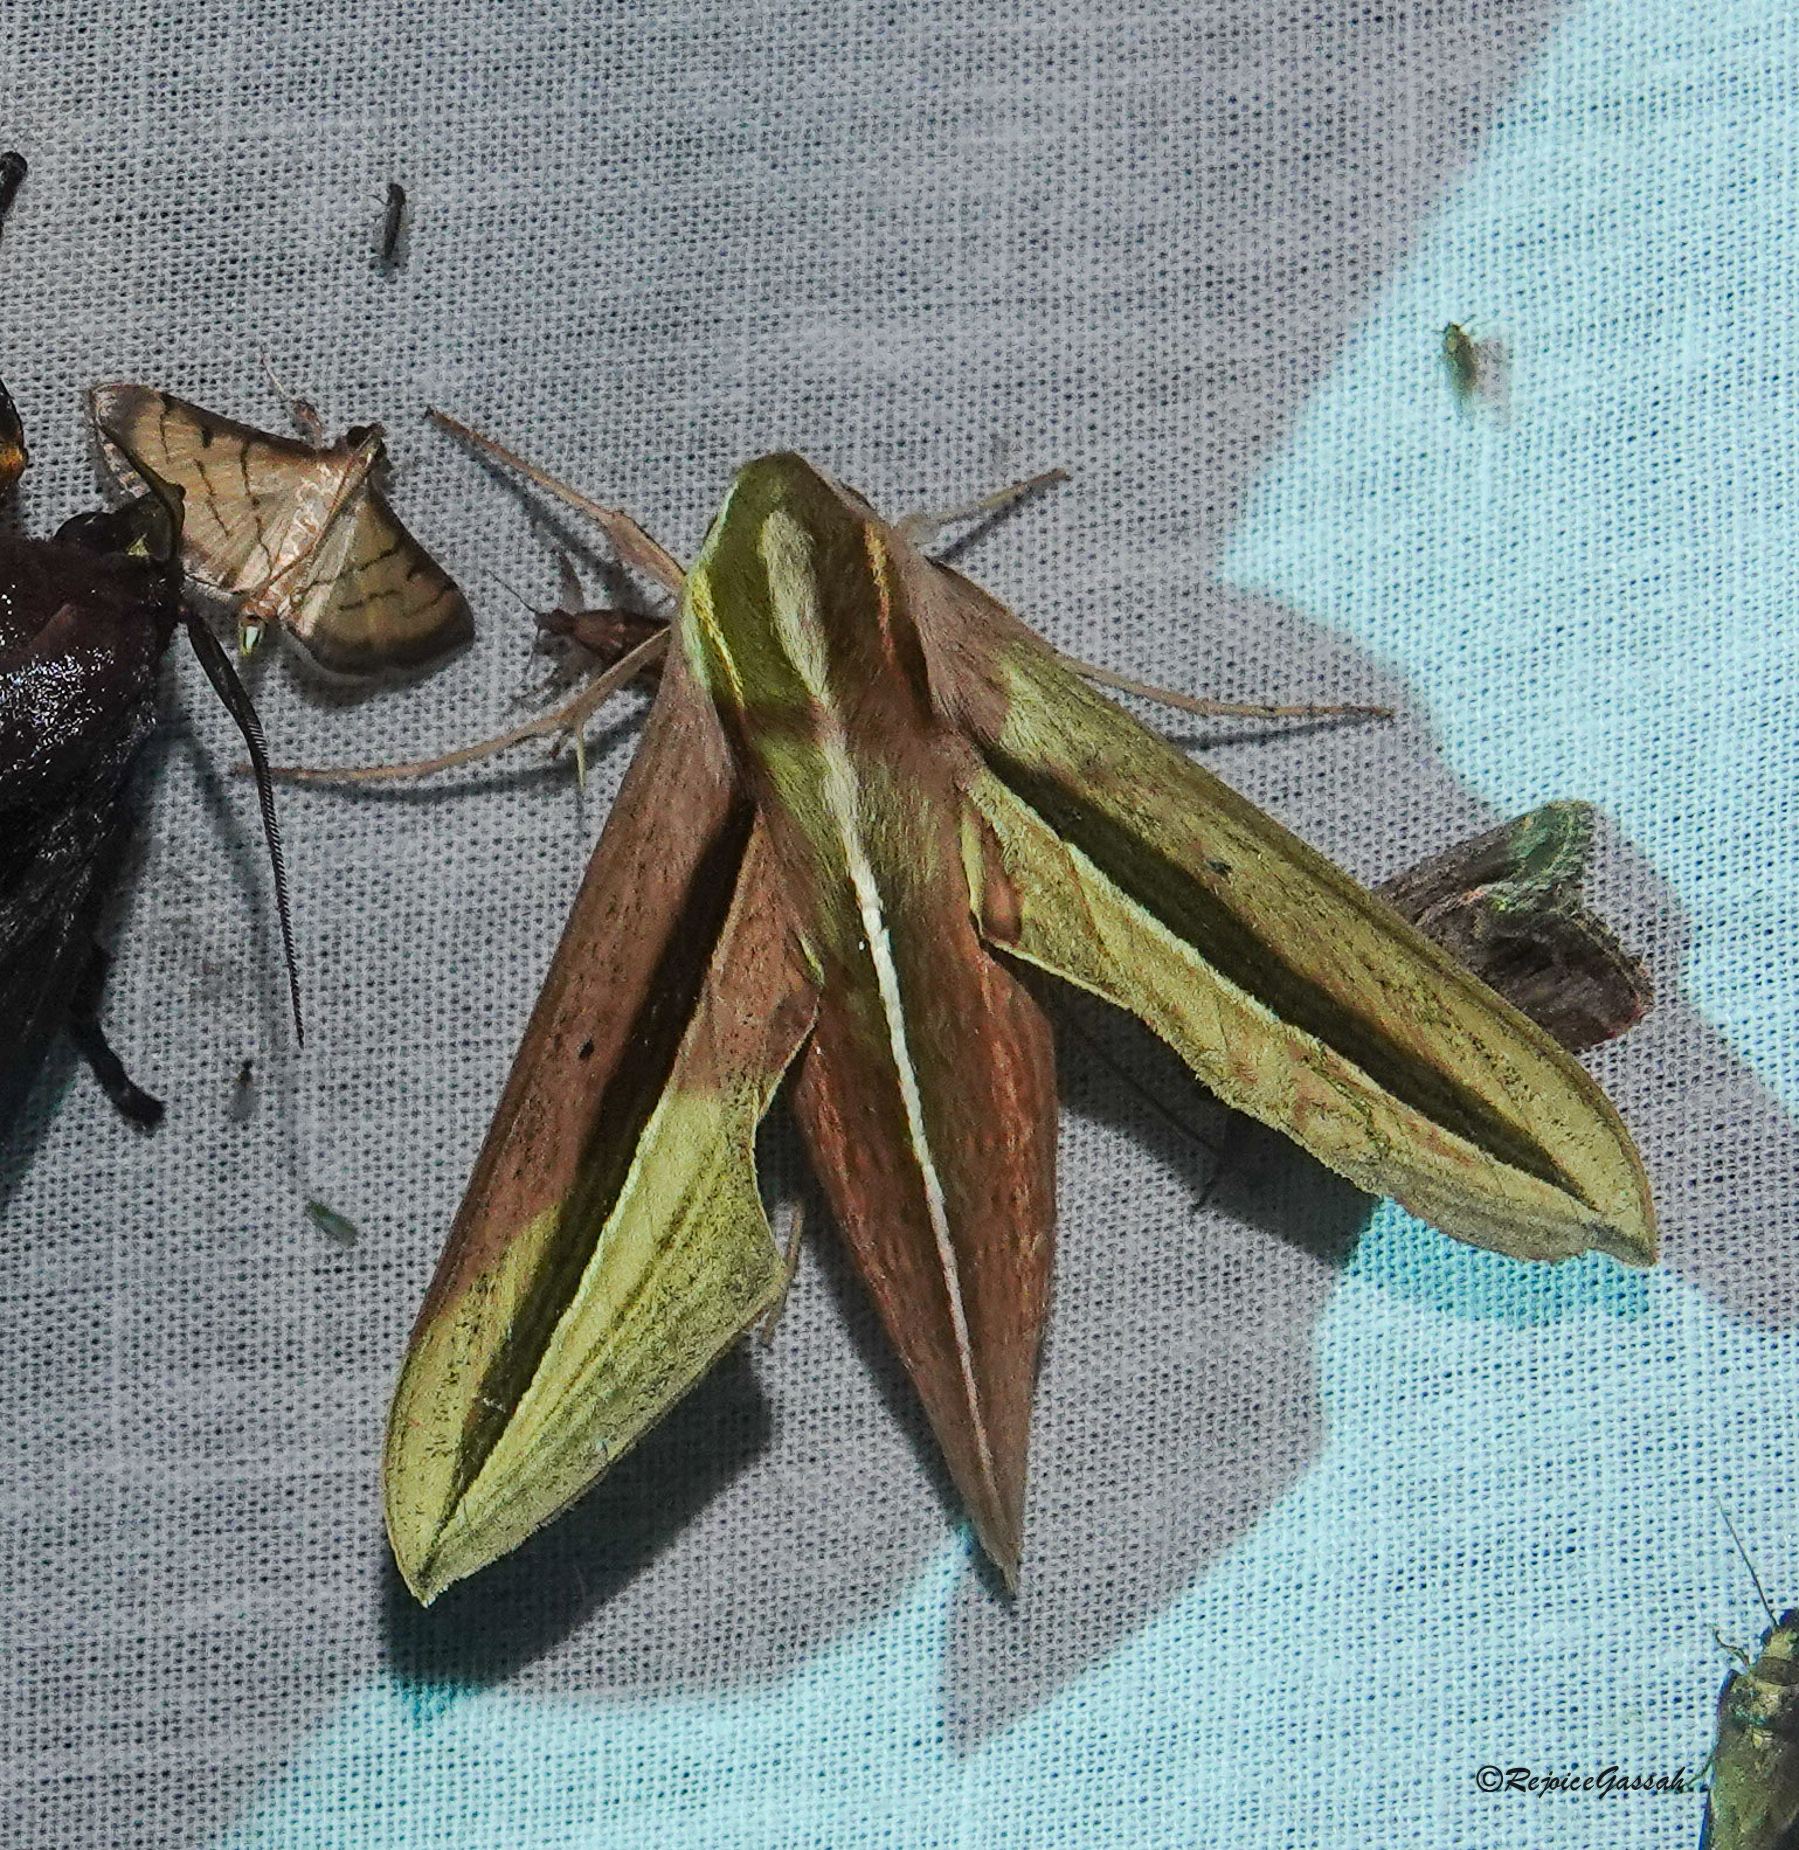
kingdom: Animalia
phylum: Arthropoda
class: Insecta
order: Lepidoptera
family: Sphingidae
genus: Theretra
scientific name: Theretra silhetensis
